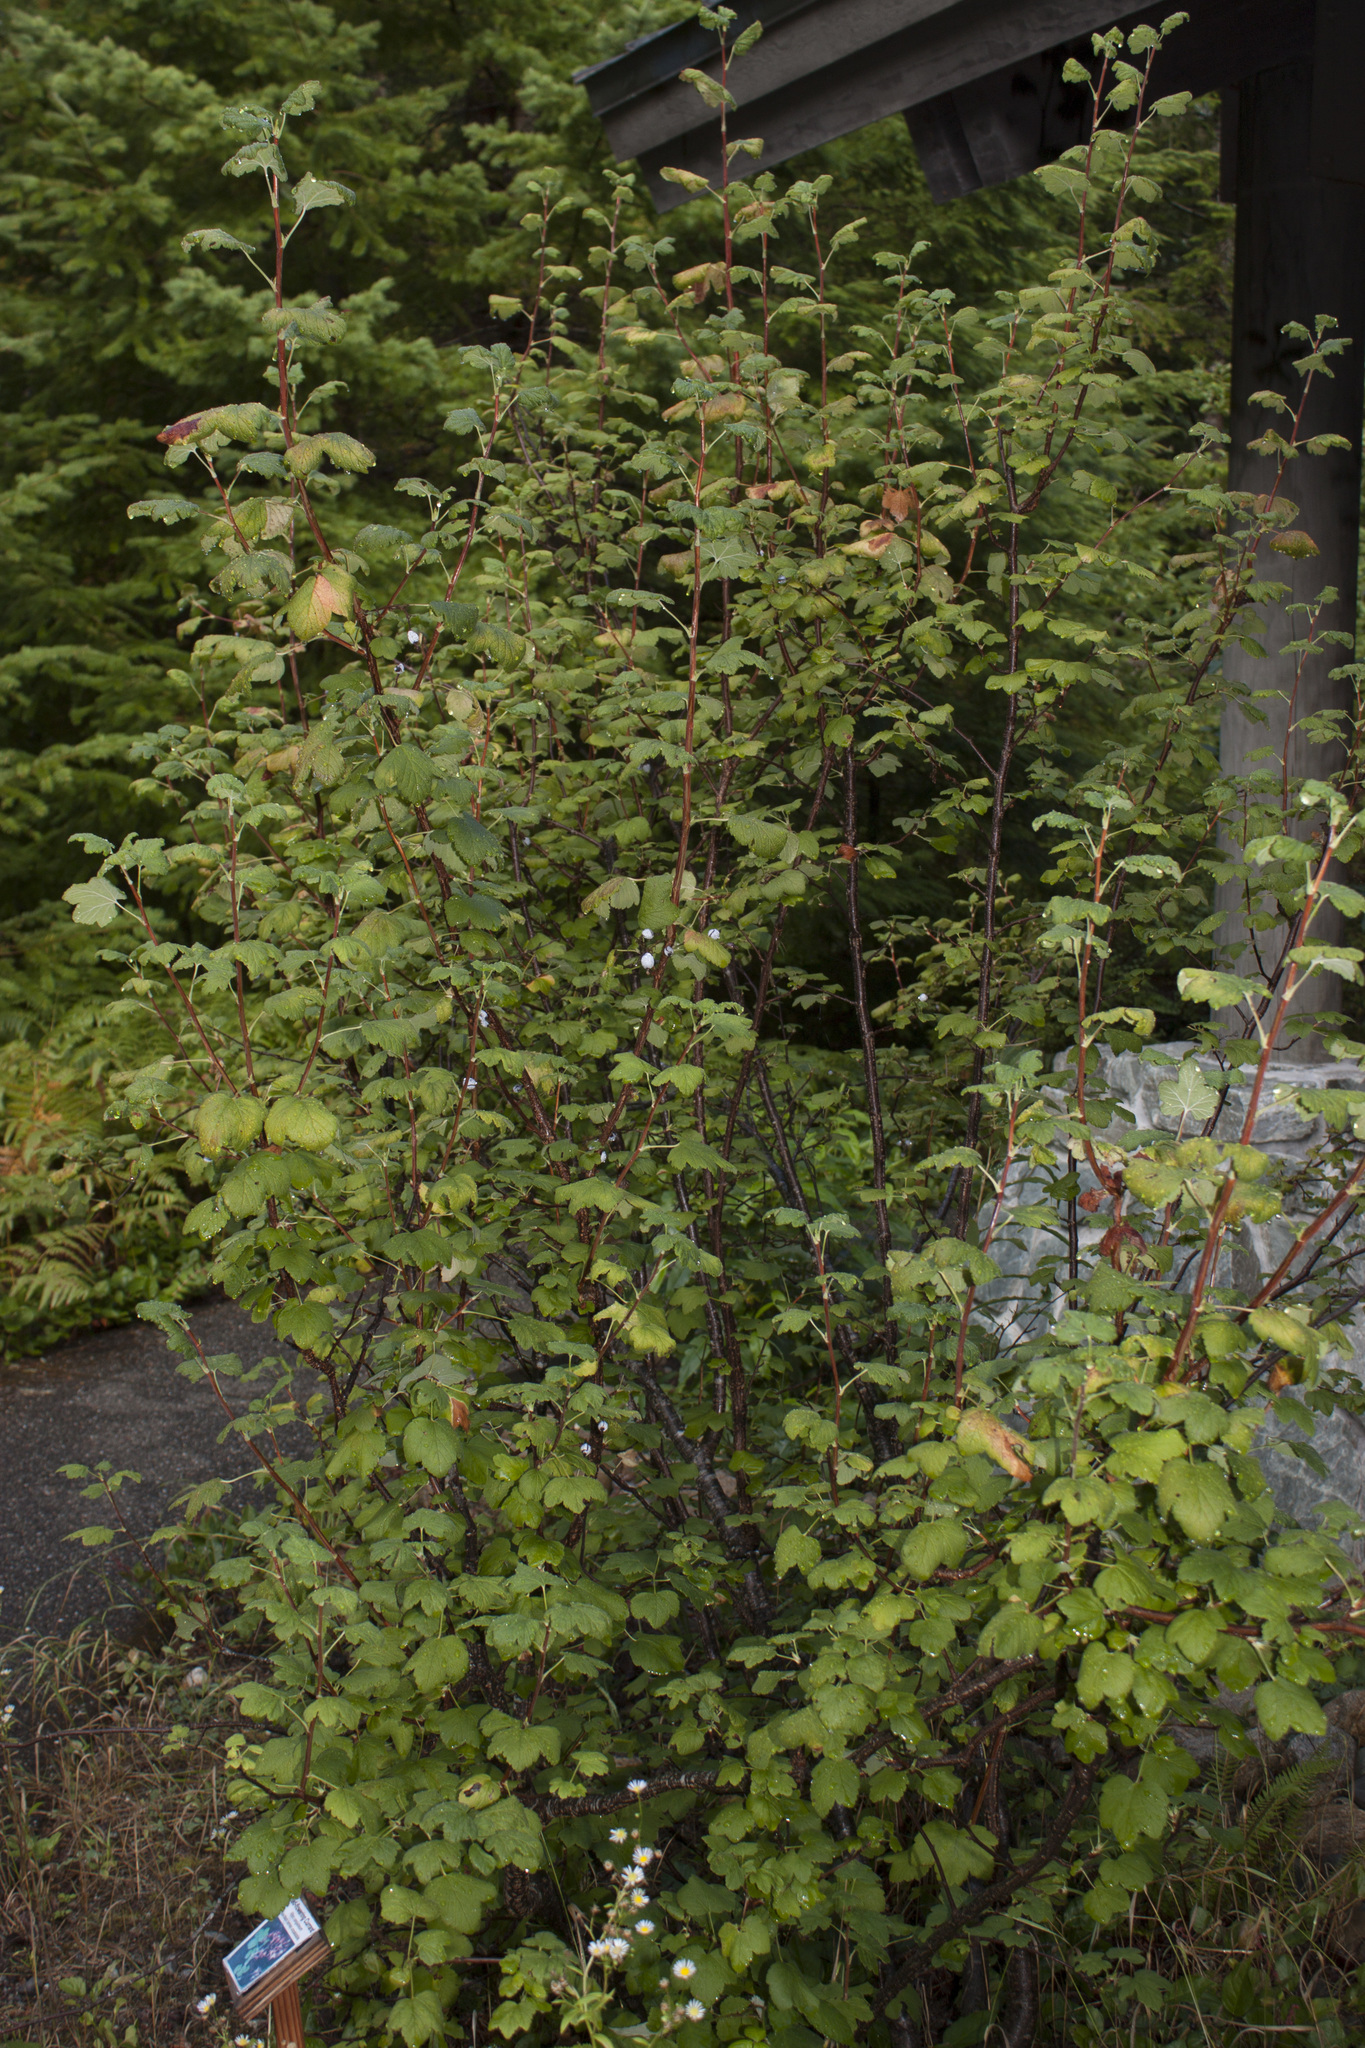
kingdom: Plantae
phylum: Tracheophyta
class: Magnoliopsida
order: Saxifragales
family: Grossulariaceae
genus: Ribes
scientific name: Ribes sanguineum
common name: Flowering currant
